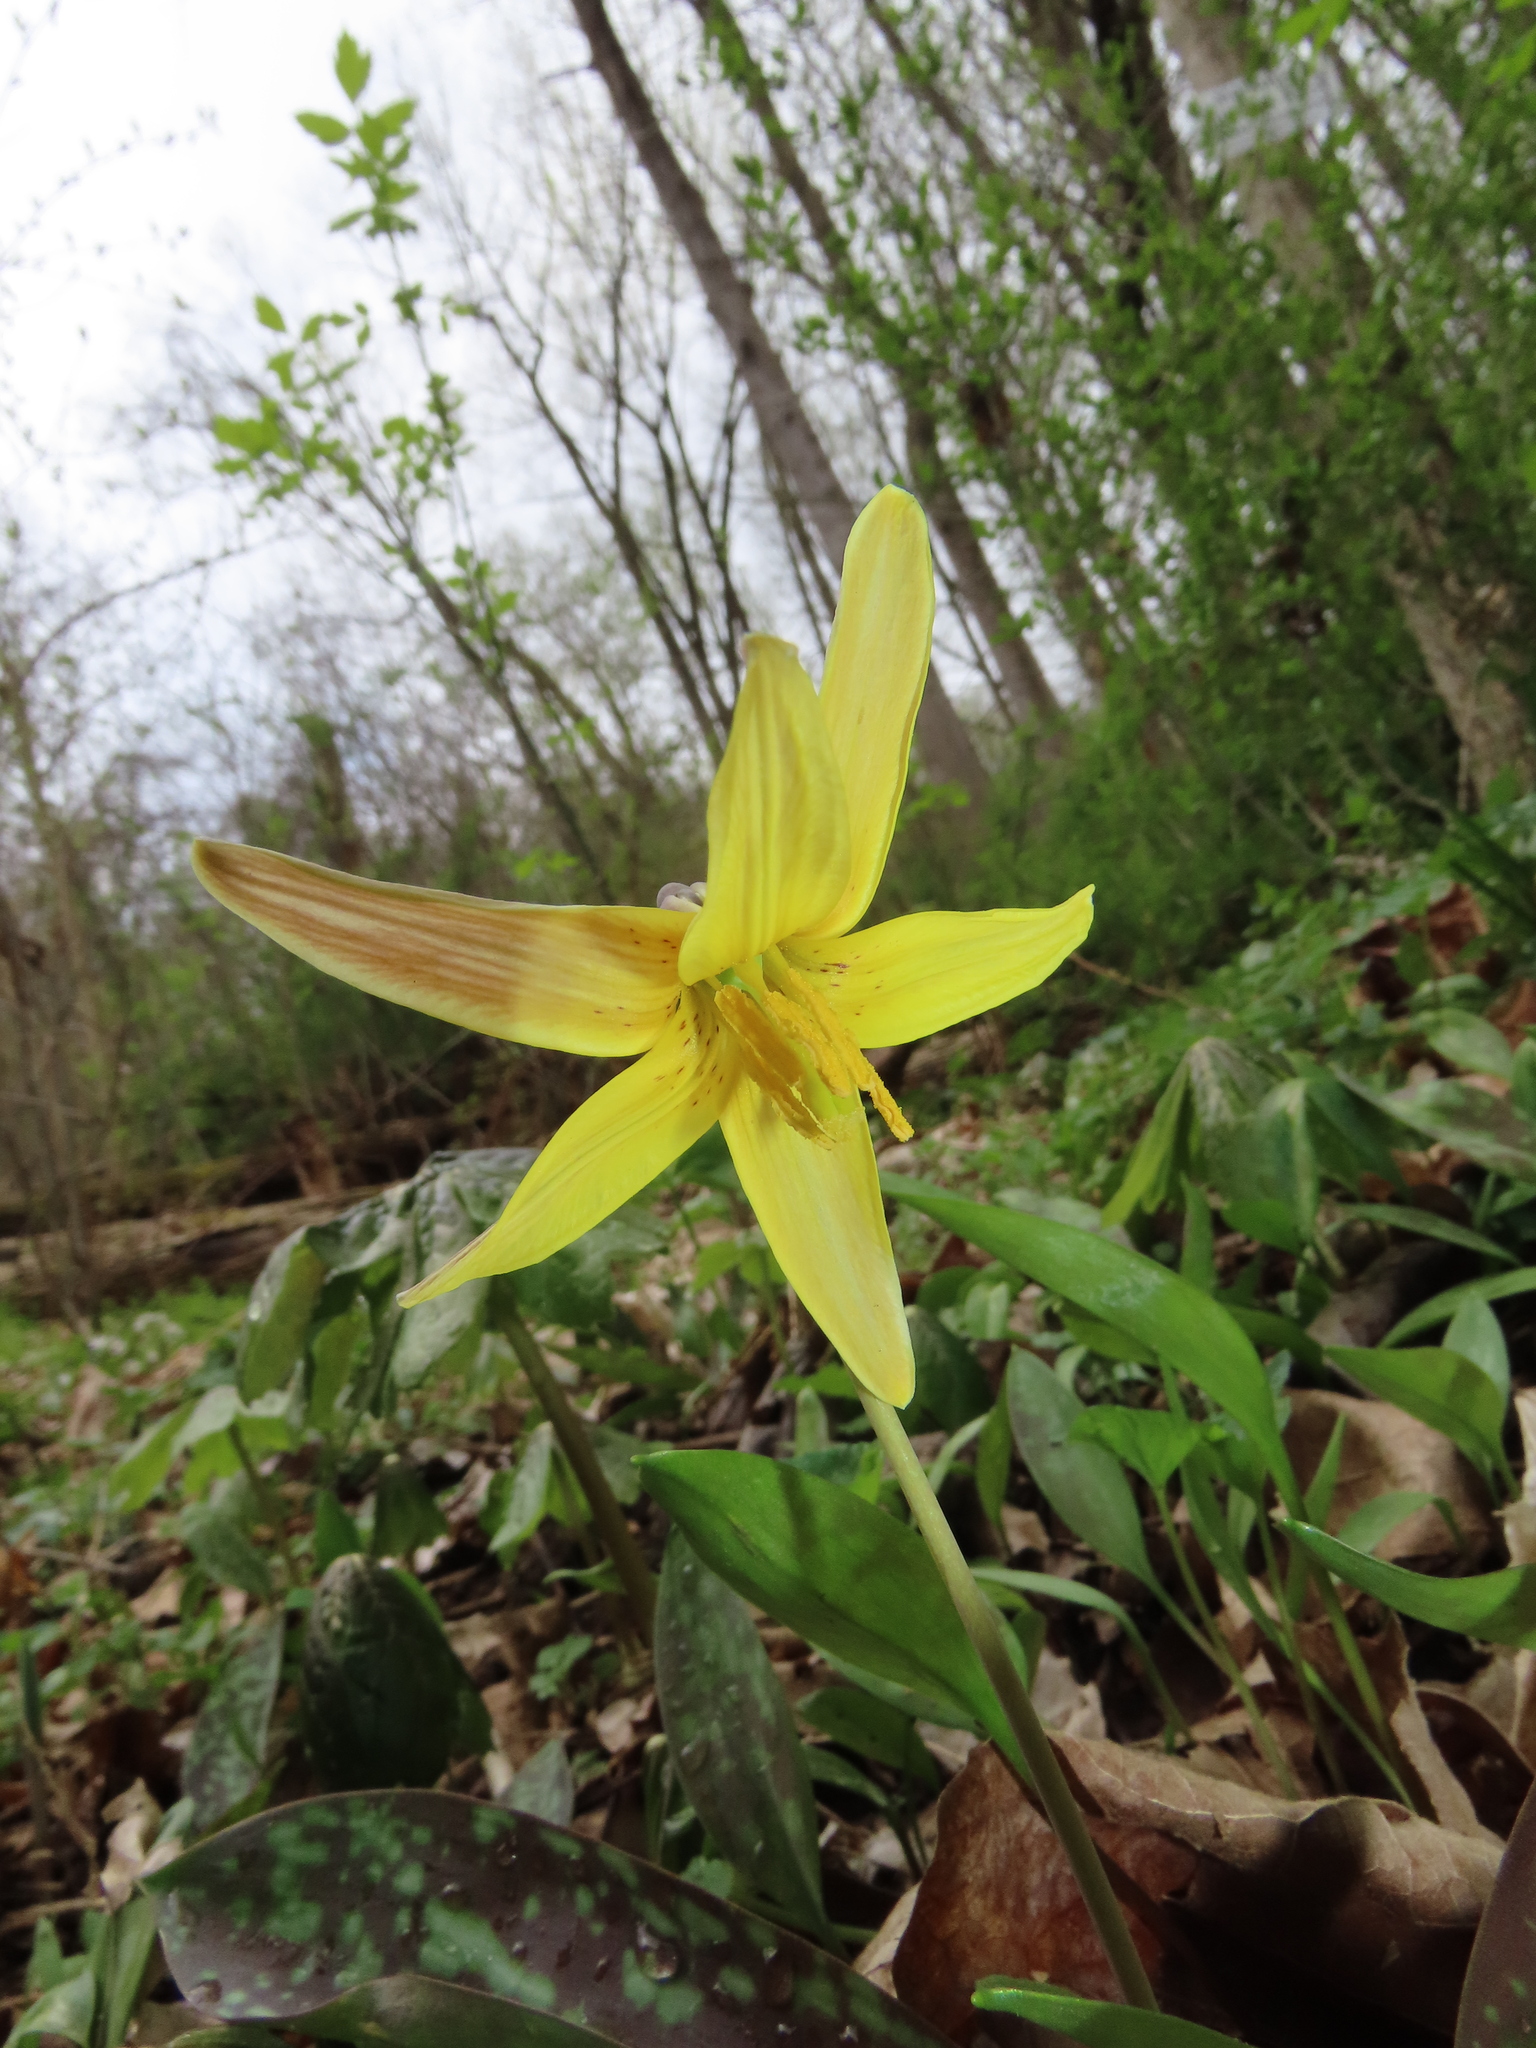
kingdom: Plantae
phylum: Tracheophyta
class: Liliopsida
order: Liliales
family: Liliaceae
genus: Erythronium
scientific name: Erythronium americanum
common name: Yellow adder's-tongue
